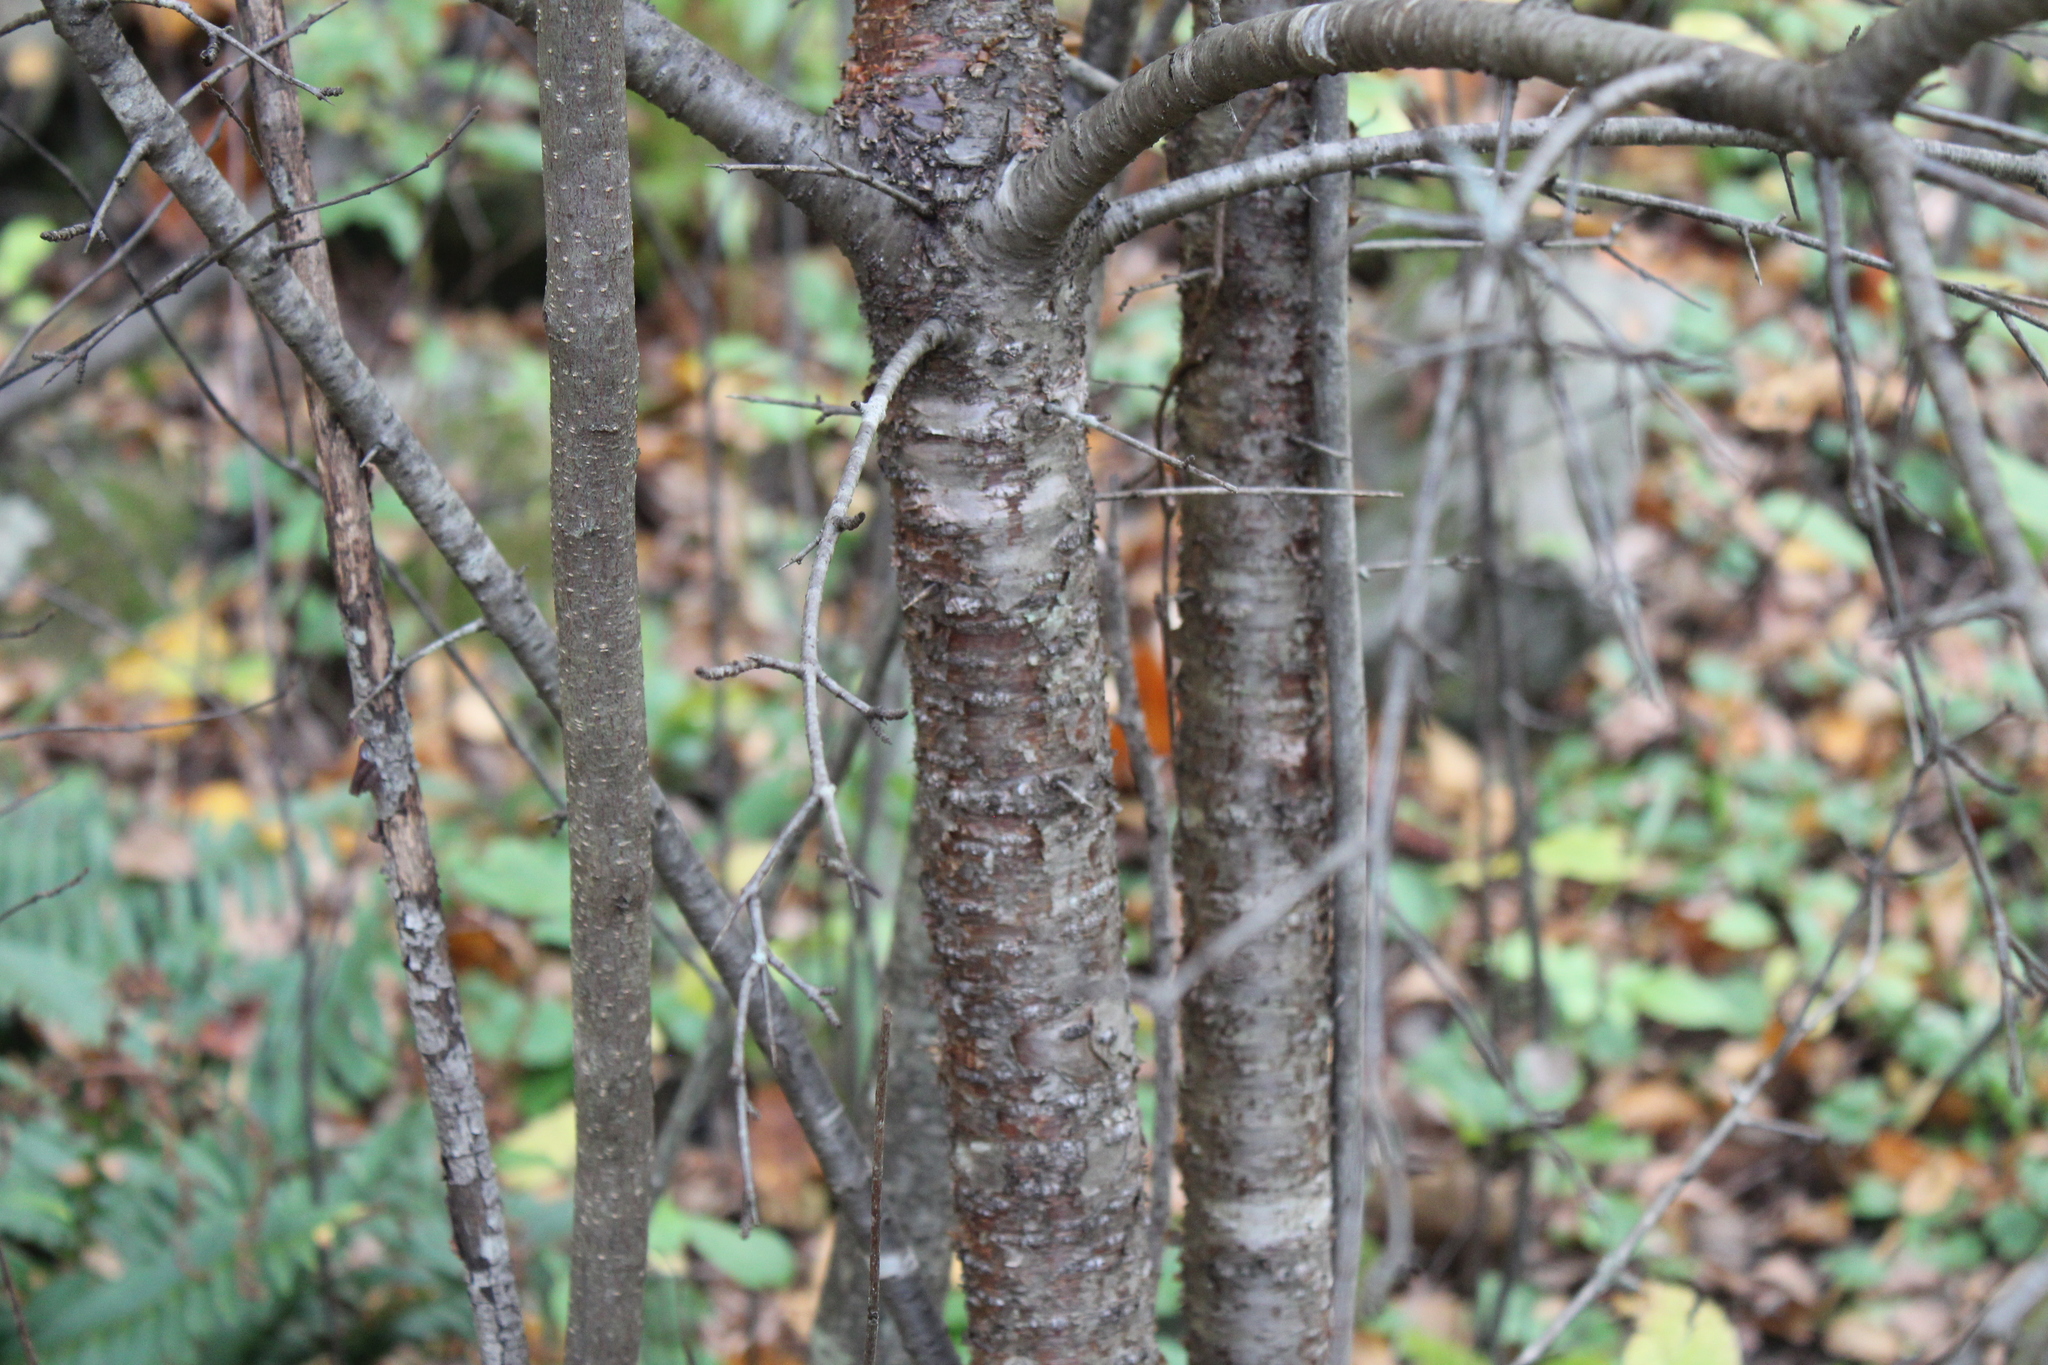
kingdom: Plantae
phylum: Tracheophyta
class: Magnoliopsida
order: Rosales
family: Rhamnaceae
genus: Rhamnus
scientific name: Rhamnus cathartica
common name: Common buckthorn
